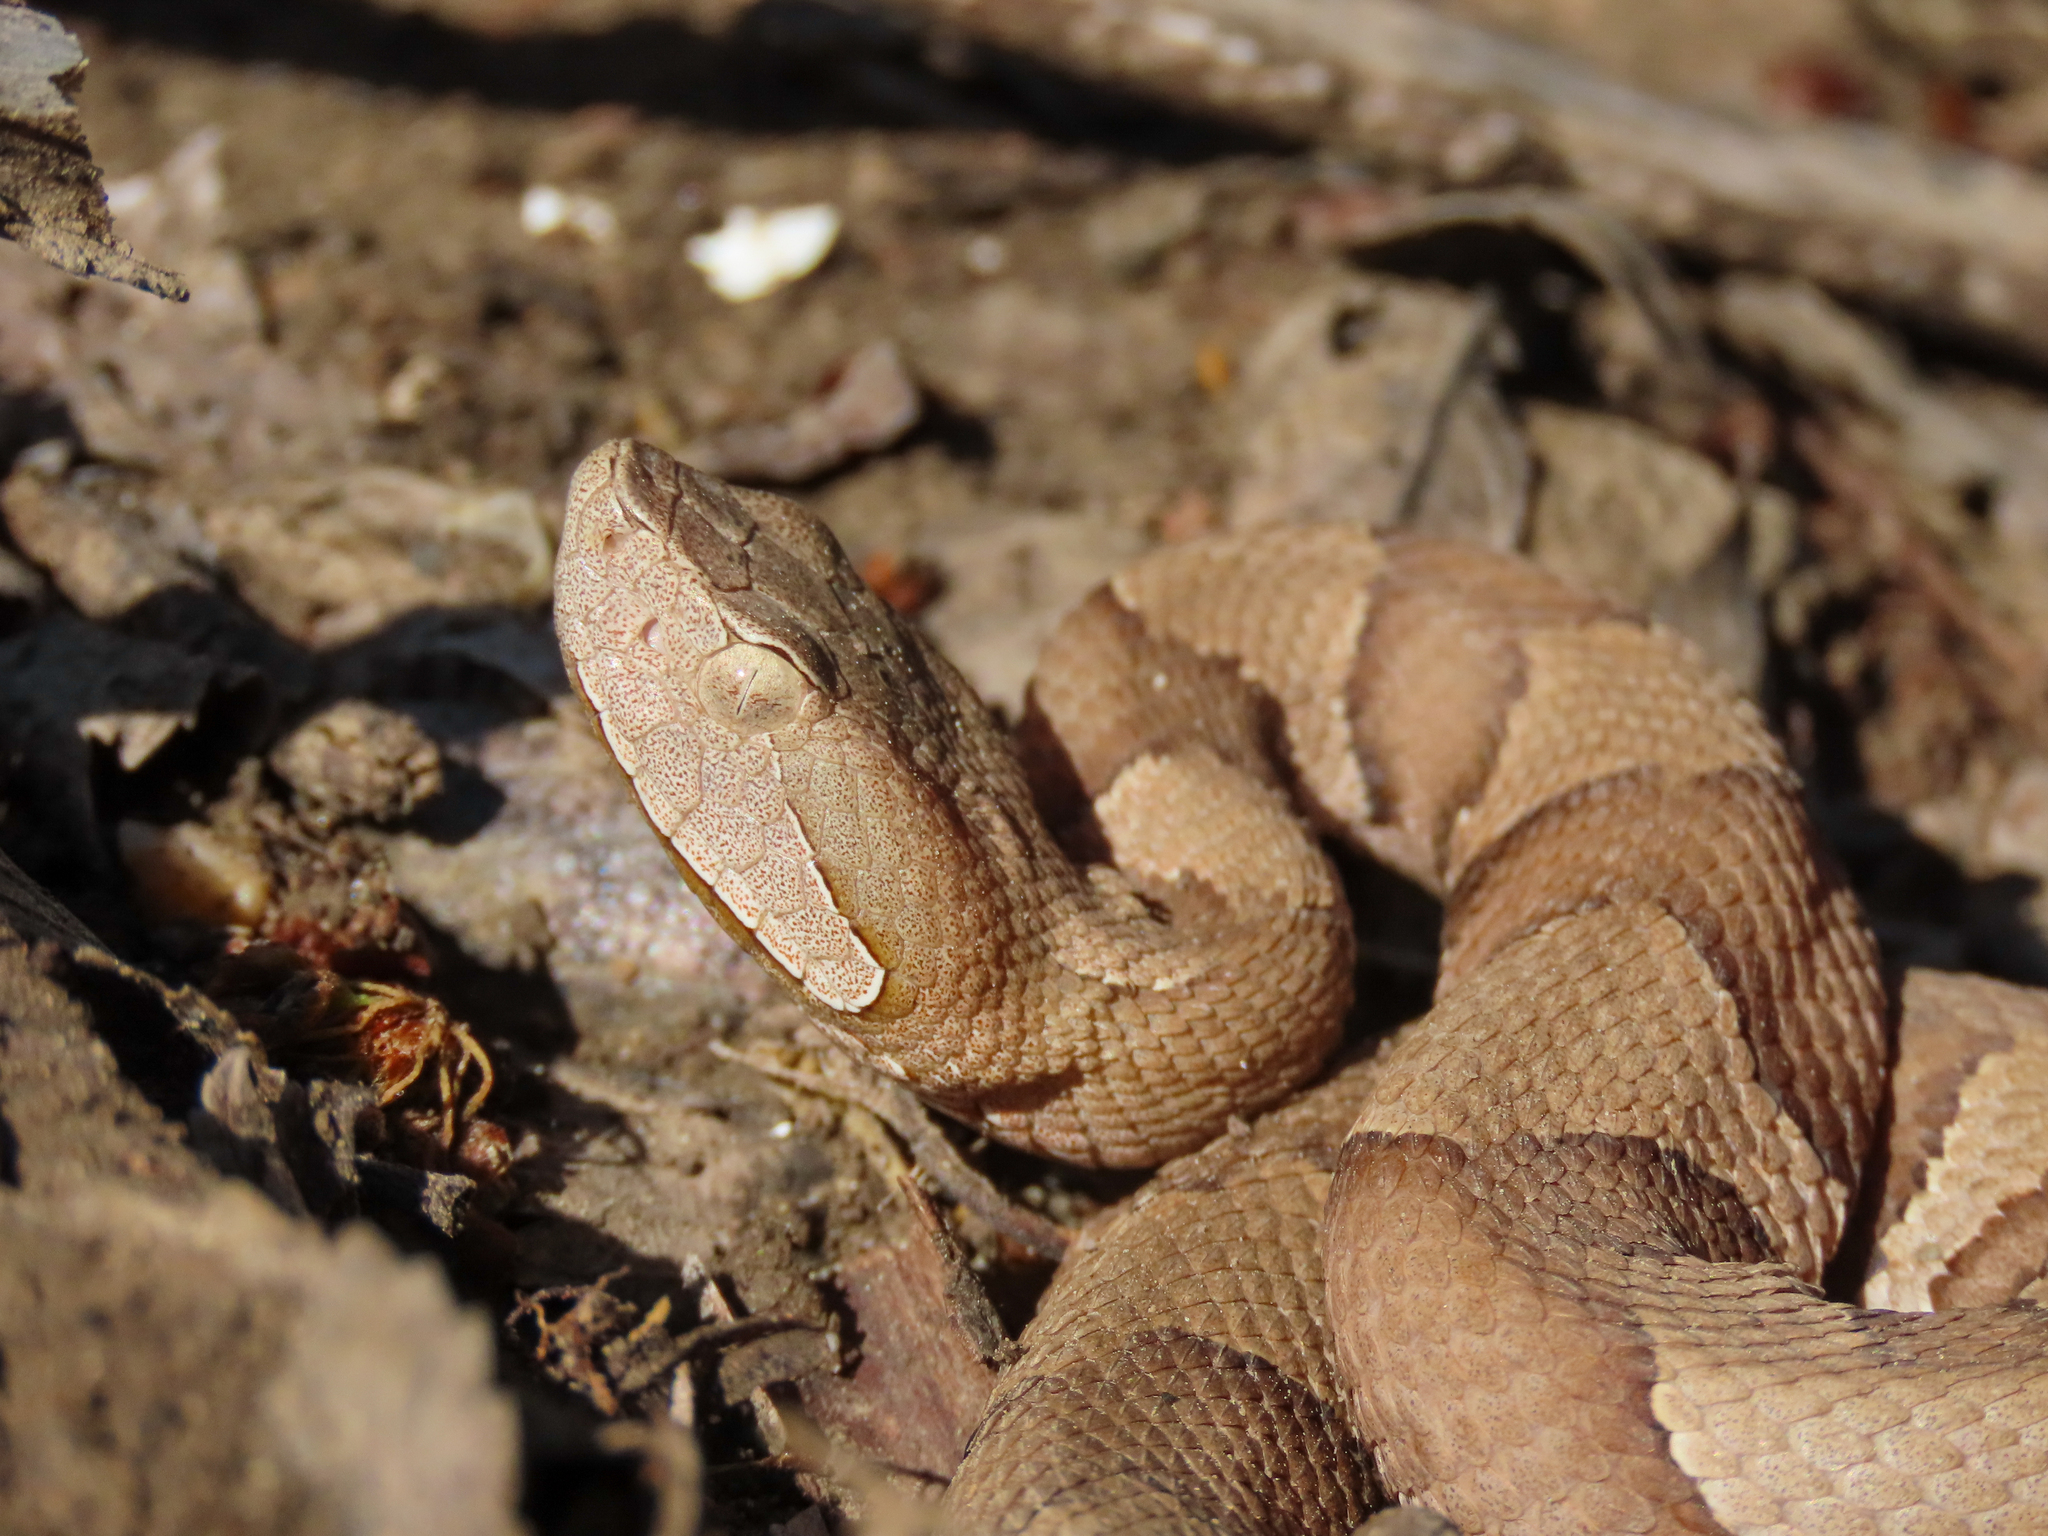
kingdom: Animalia
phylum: Chordata
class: Squamata
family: Viperidae
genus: Agkistrodon
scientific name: Agkistrodon laticinctus
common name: Broad-banded copperhead
